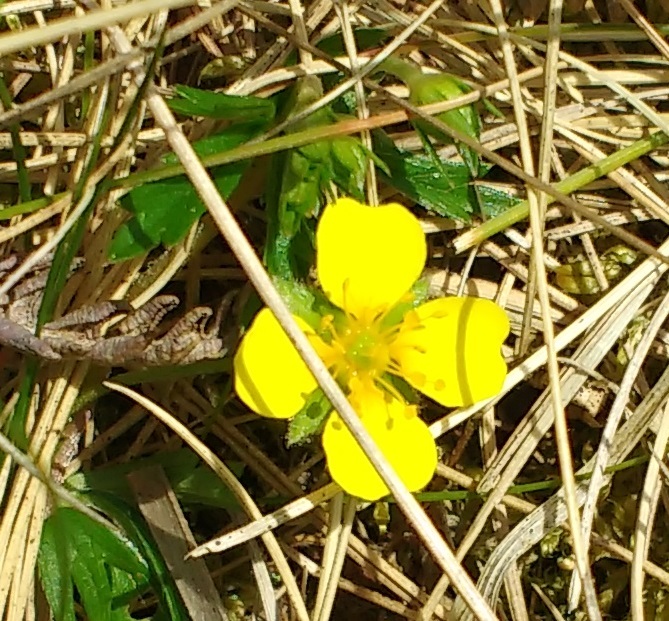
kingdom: Plantae
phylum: Tracheophyta
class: Magnoliopsida
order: Rosales
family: Rosaceae
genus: Potentilla
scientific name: Potentilla erecta
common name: Tormentil
